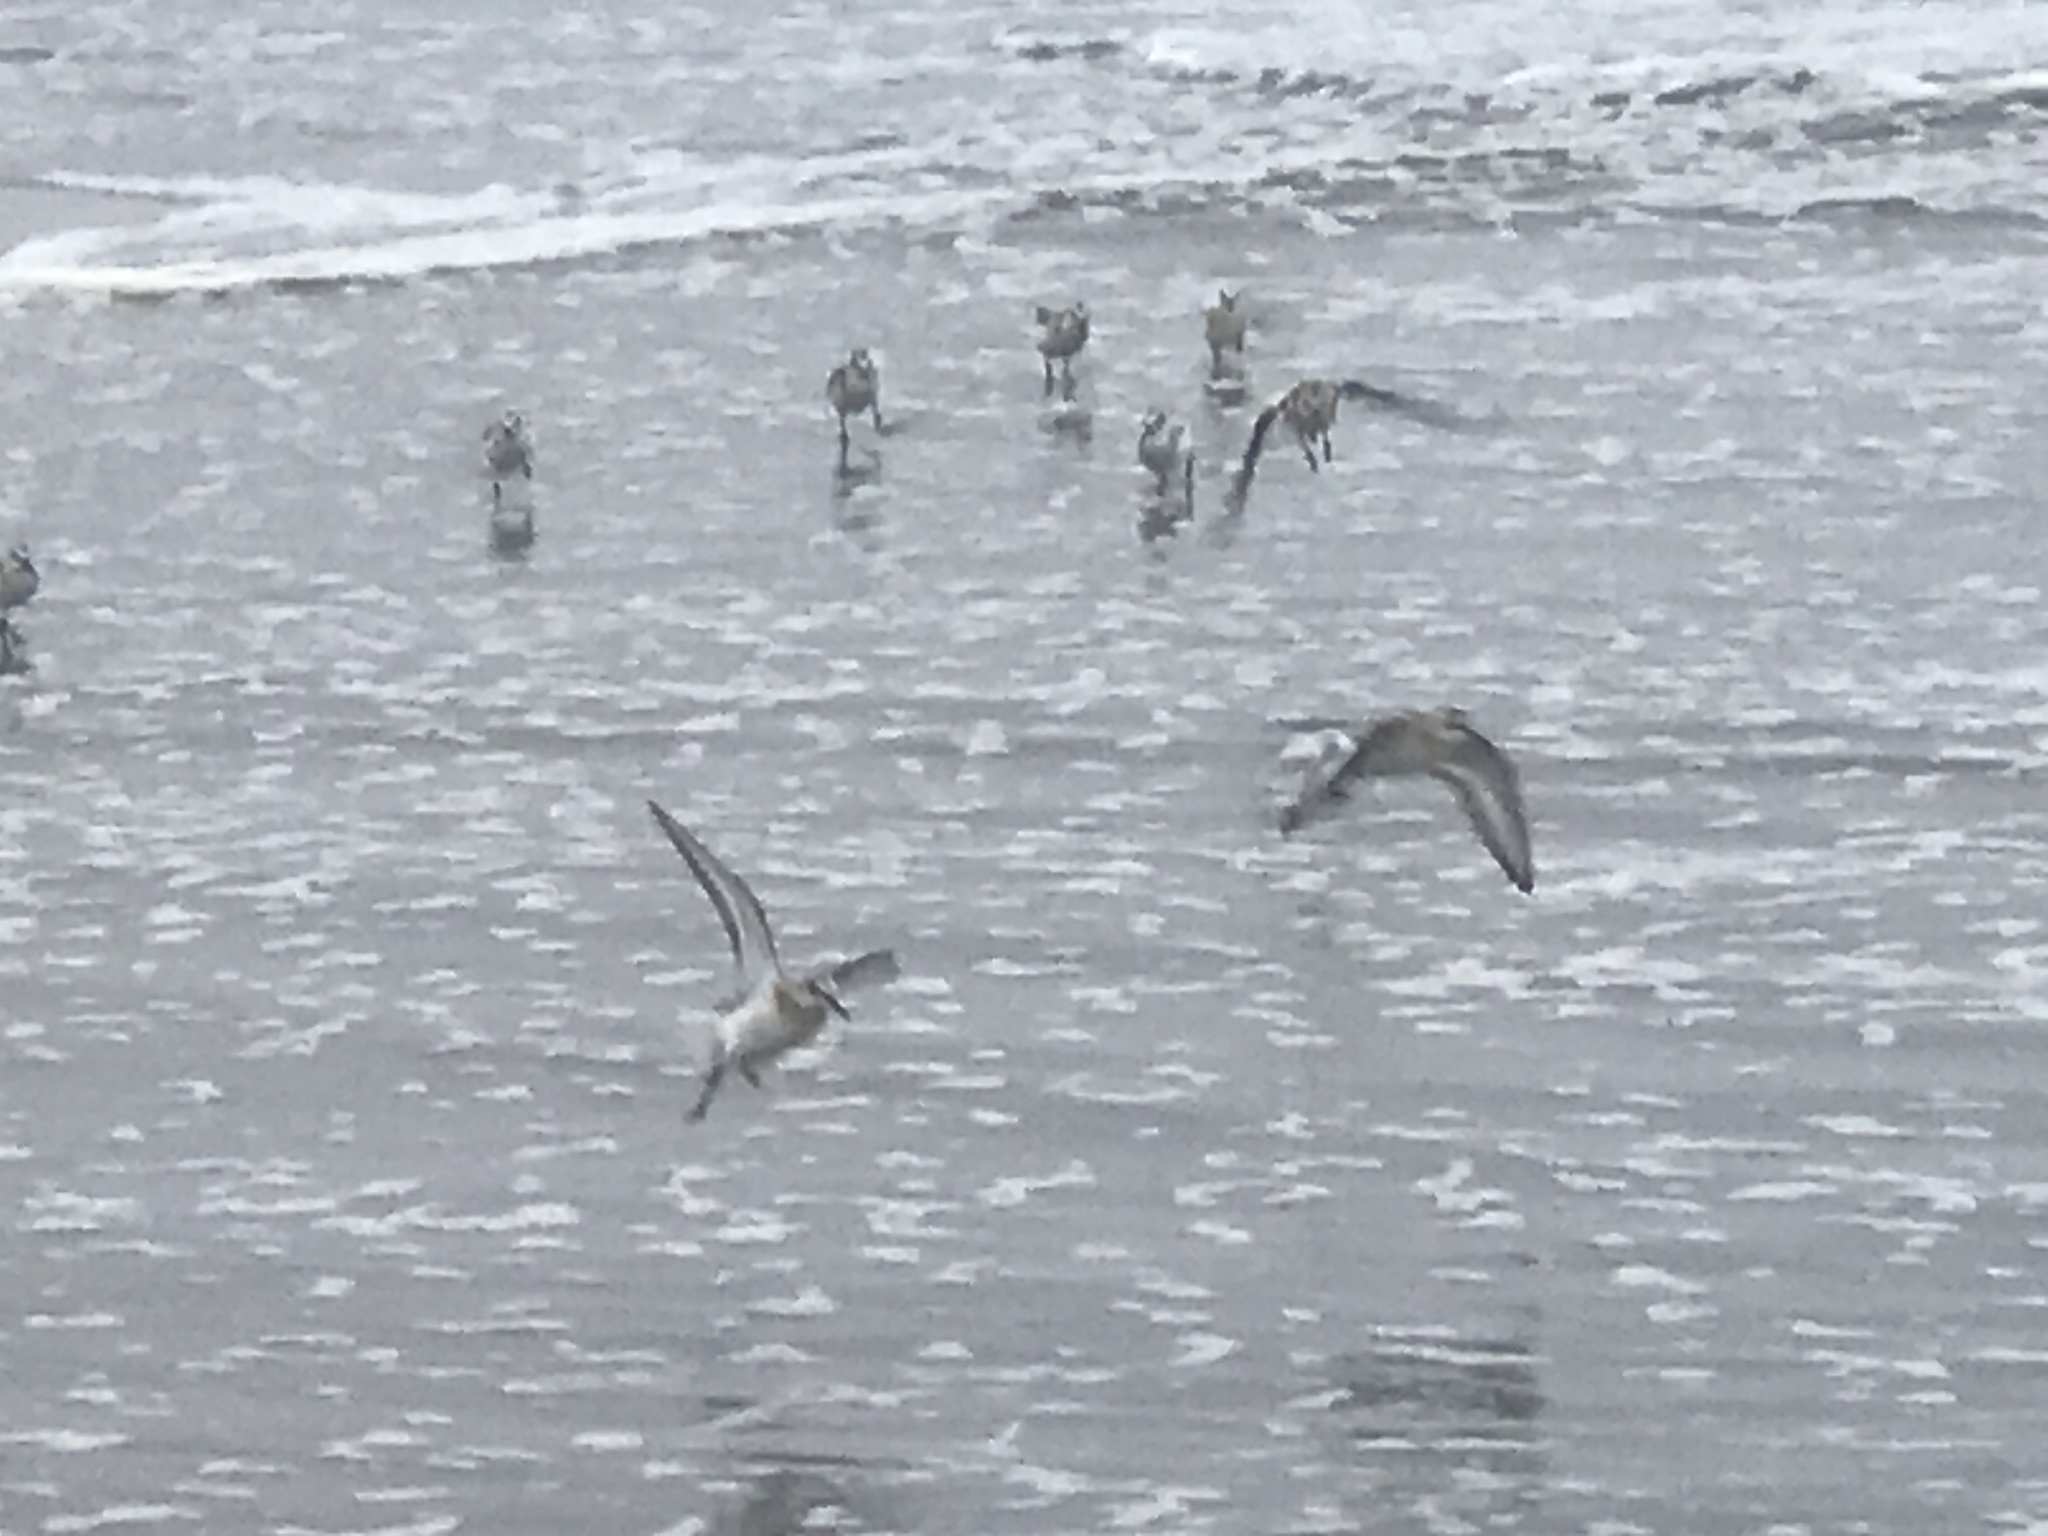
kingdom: Animalia
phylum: Chordata
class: Aves
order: Charadriiformes
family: Scolopacidae
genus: Calidris
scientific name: Calidris alba
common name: Sanderling
